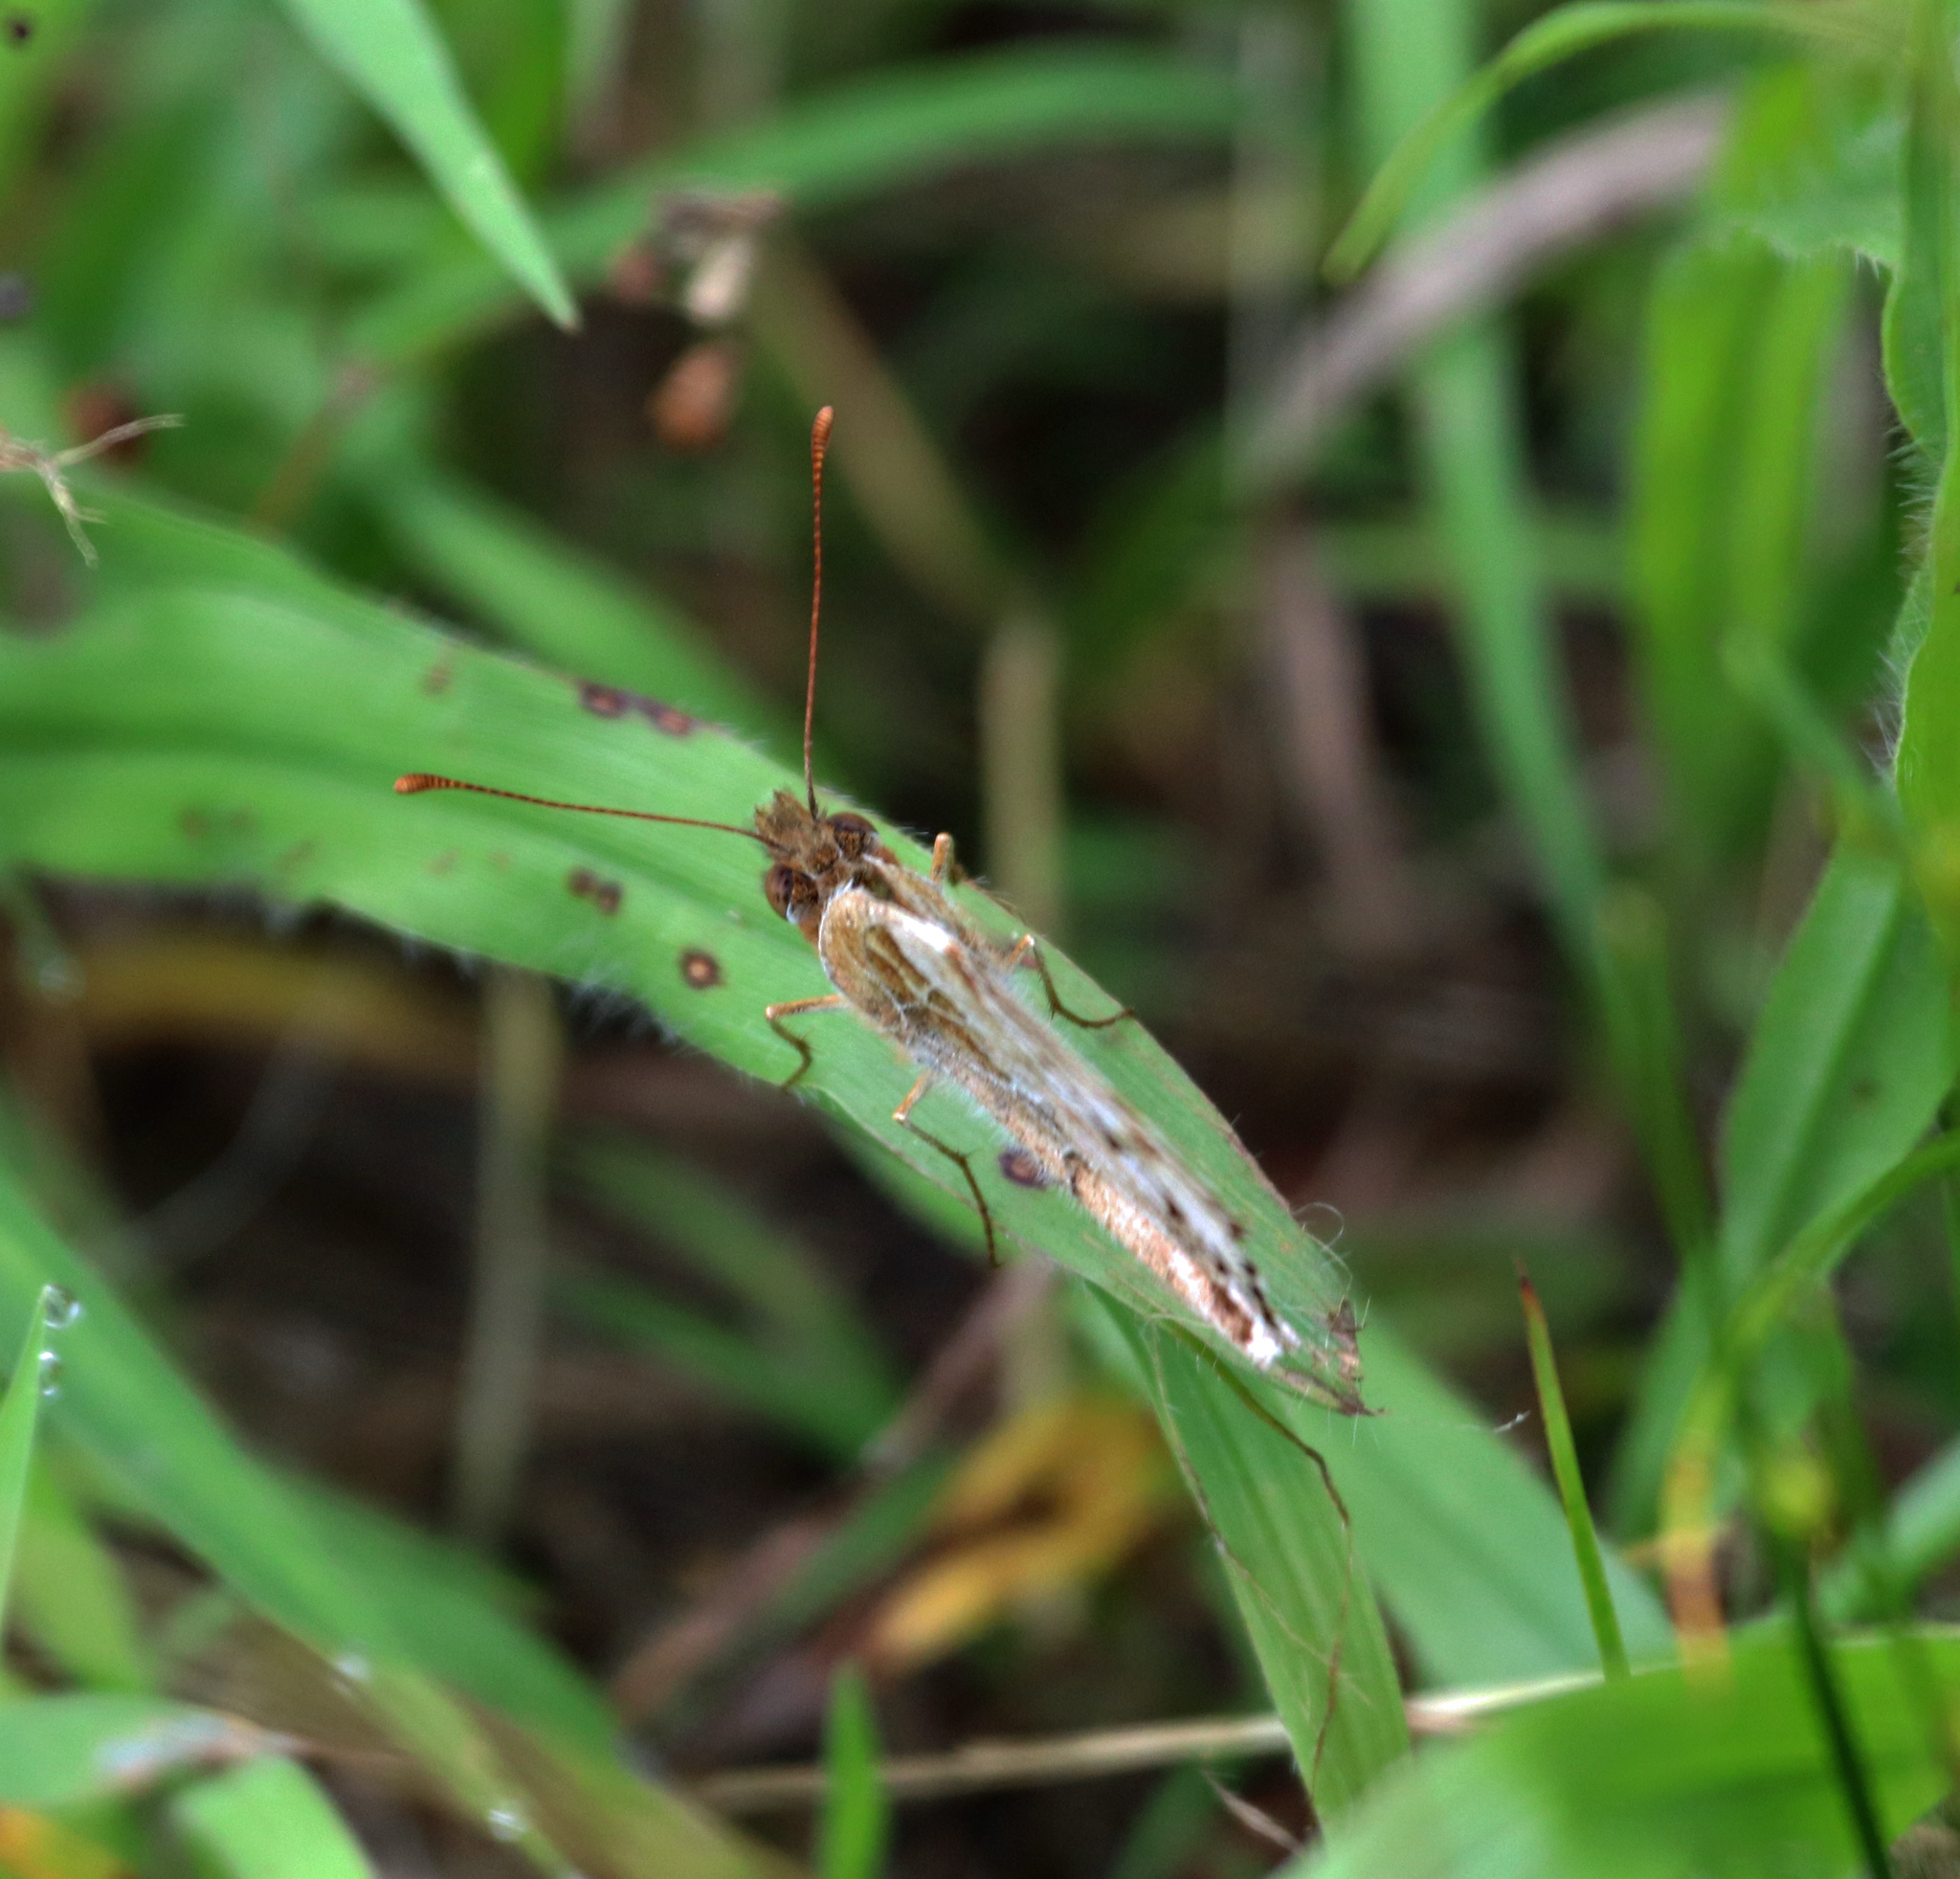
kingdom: Animalia
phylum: Arthropoda
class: Insecta
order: Lepidoptera
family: Nymphalidae
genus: Euptoieta
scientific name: Euptoieta claudia
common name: Variegated fritillary
